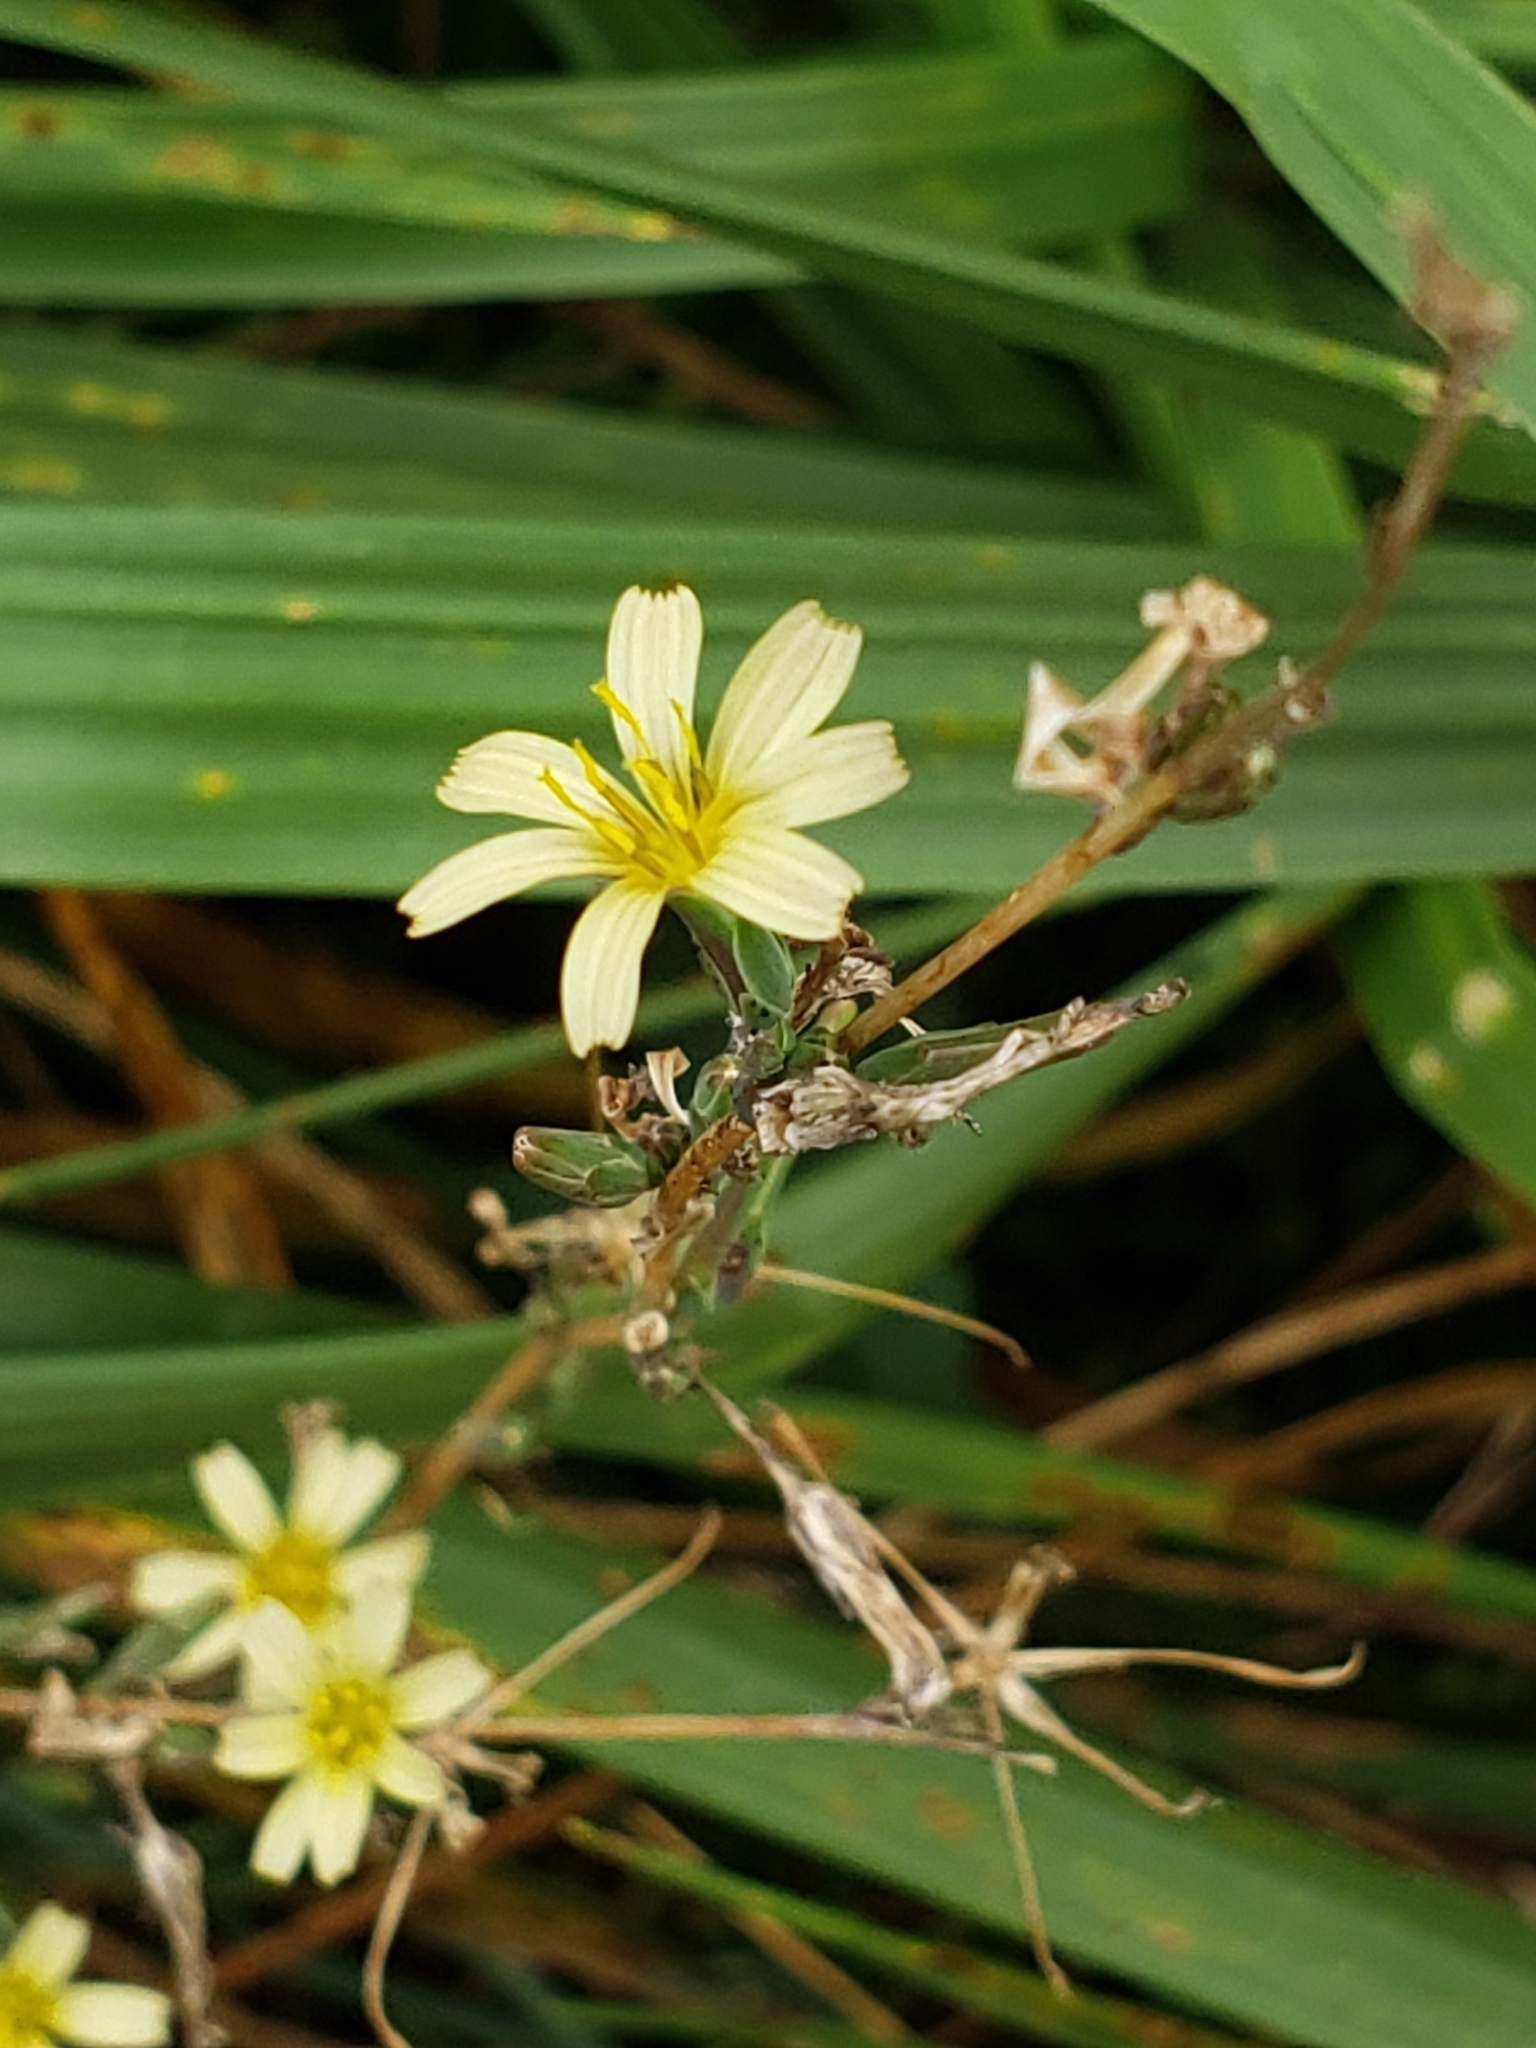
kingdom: Plantae
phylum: Tracheophyta
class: Magnoliopsida
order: Asterales
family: Asteraceae
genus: Lactuca
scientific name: Lactuca saligna
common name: Wild lettuce
